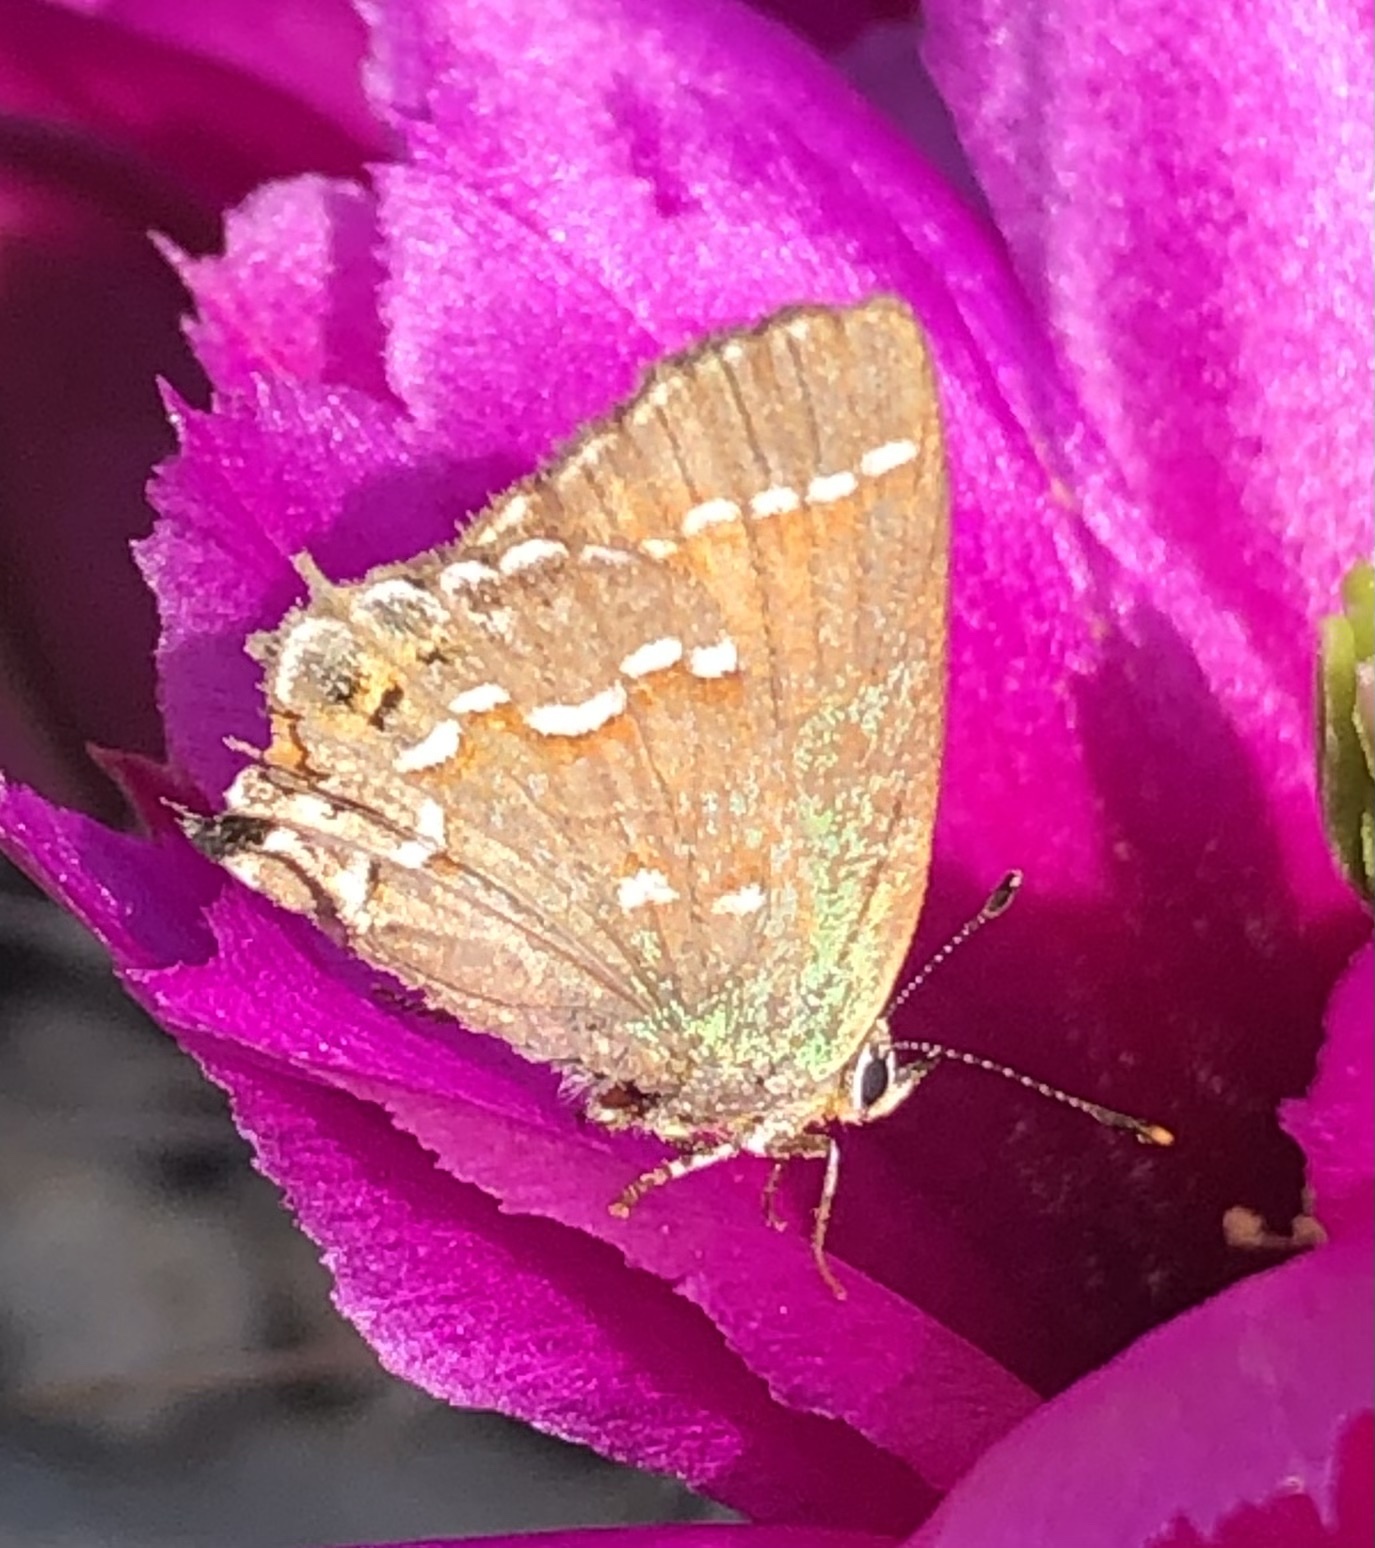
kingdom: Animalia
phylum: Arthropoda
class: Insecta
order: Lepidoptera
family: Lycaenidae
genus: Mitoura
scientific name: Mitoura gryneus
